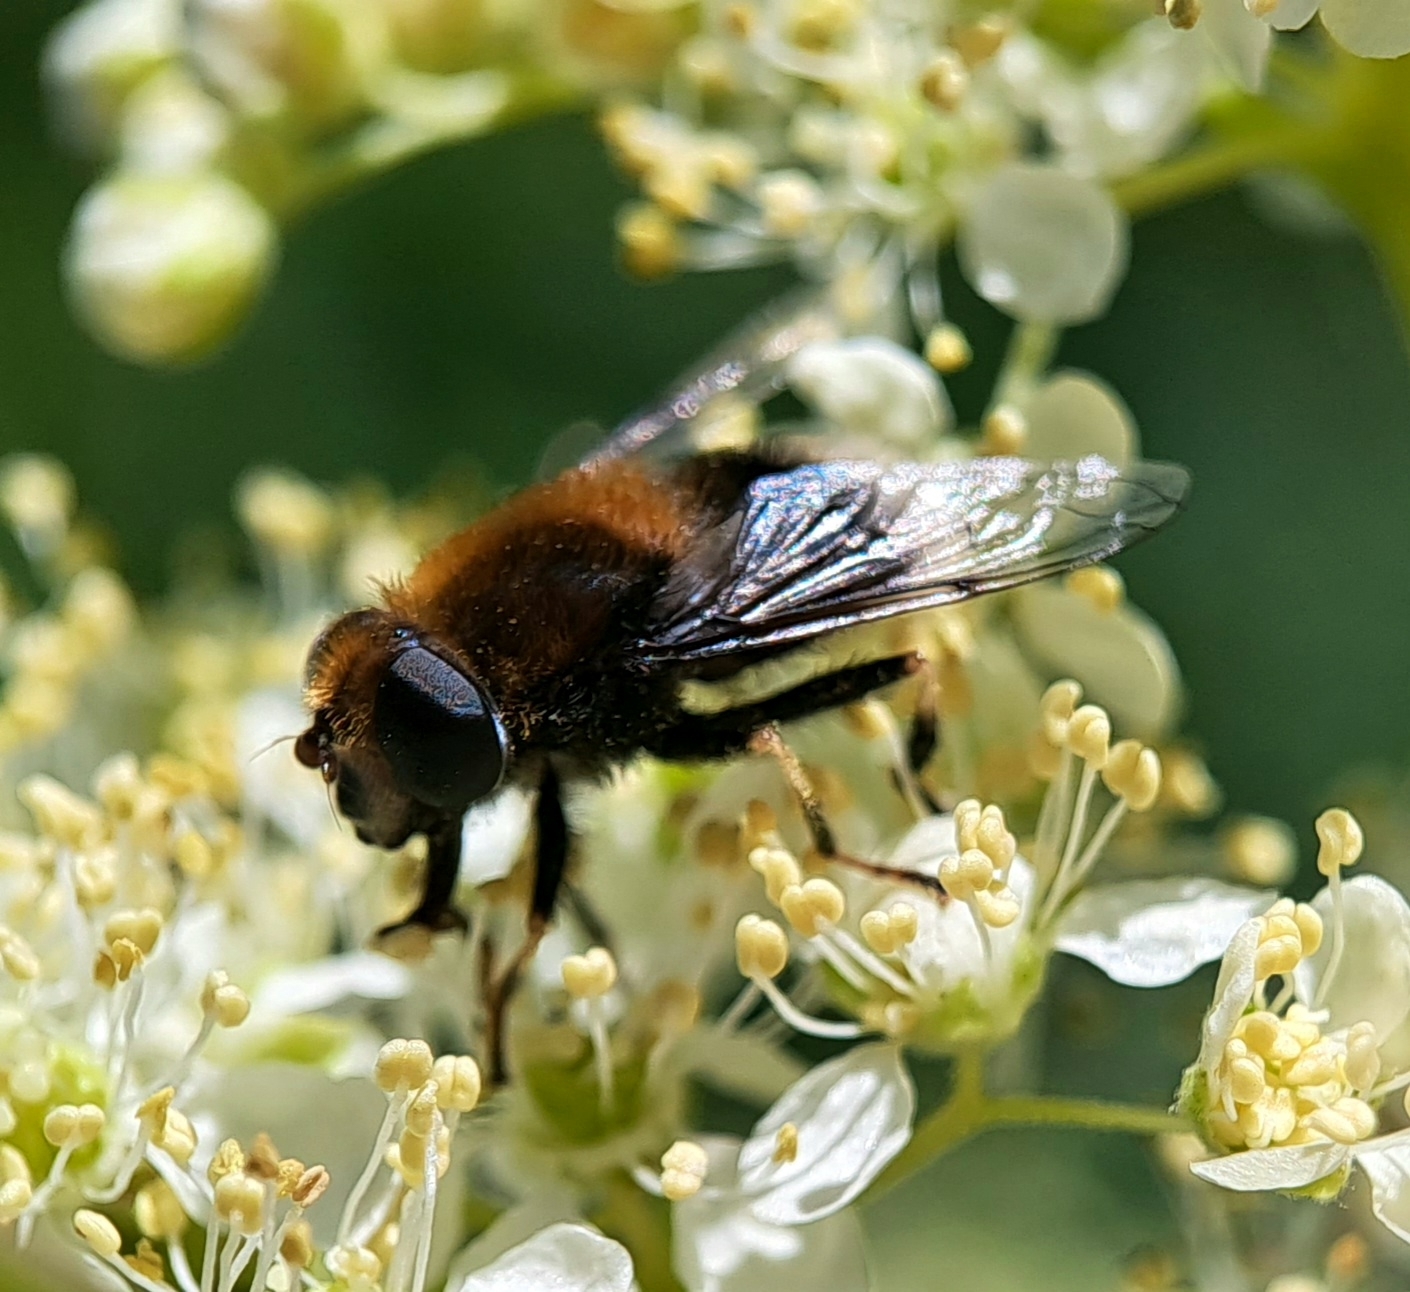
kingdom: Animalia
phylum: Arthropoda
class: Insecta
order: Diptera
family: Syrphidae
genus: Eristalis
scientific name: Eristalis intricaria
